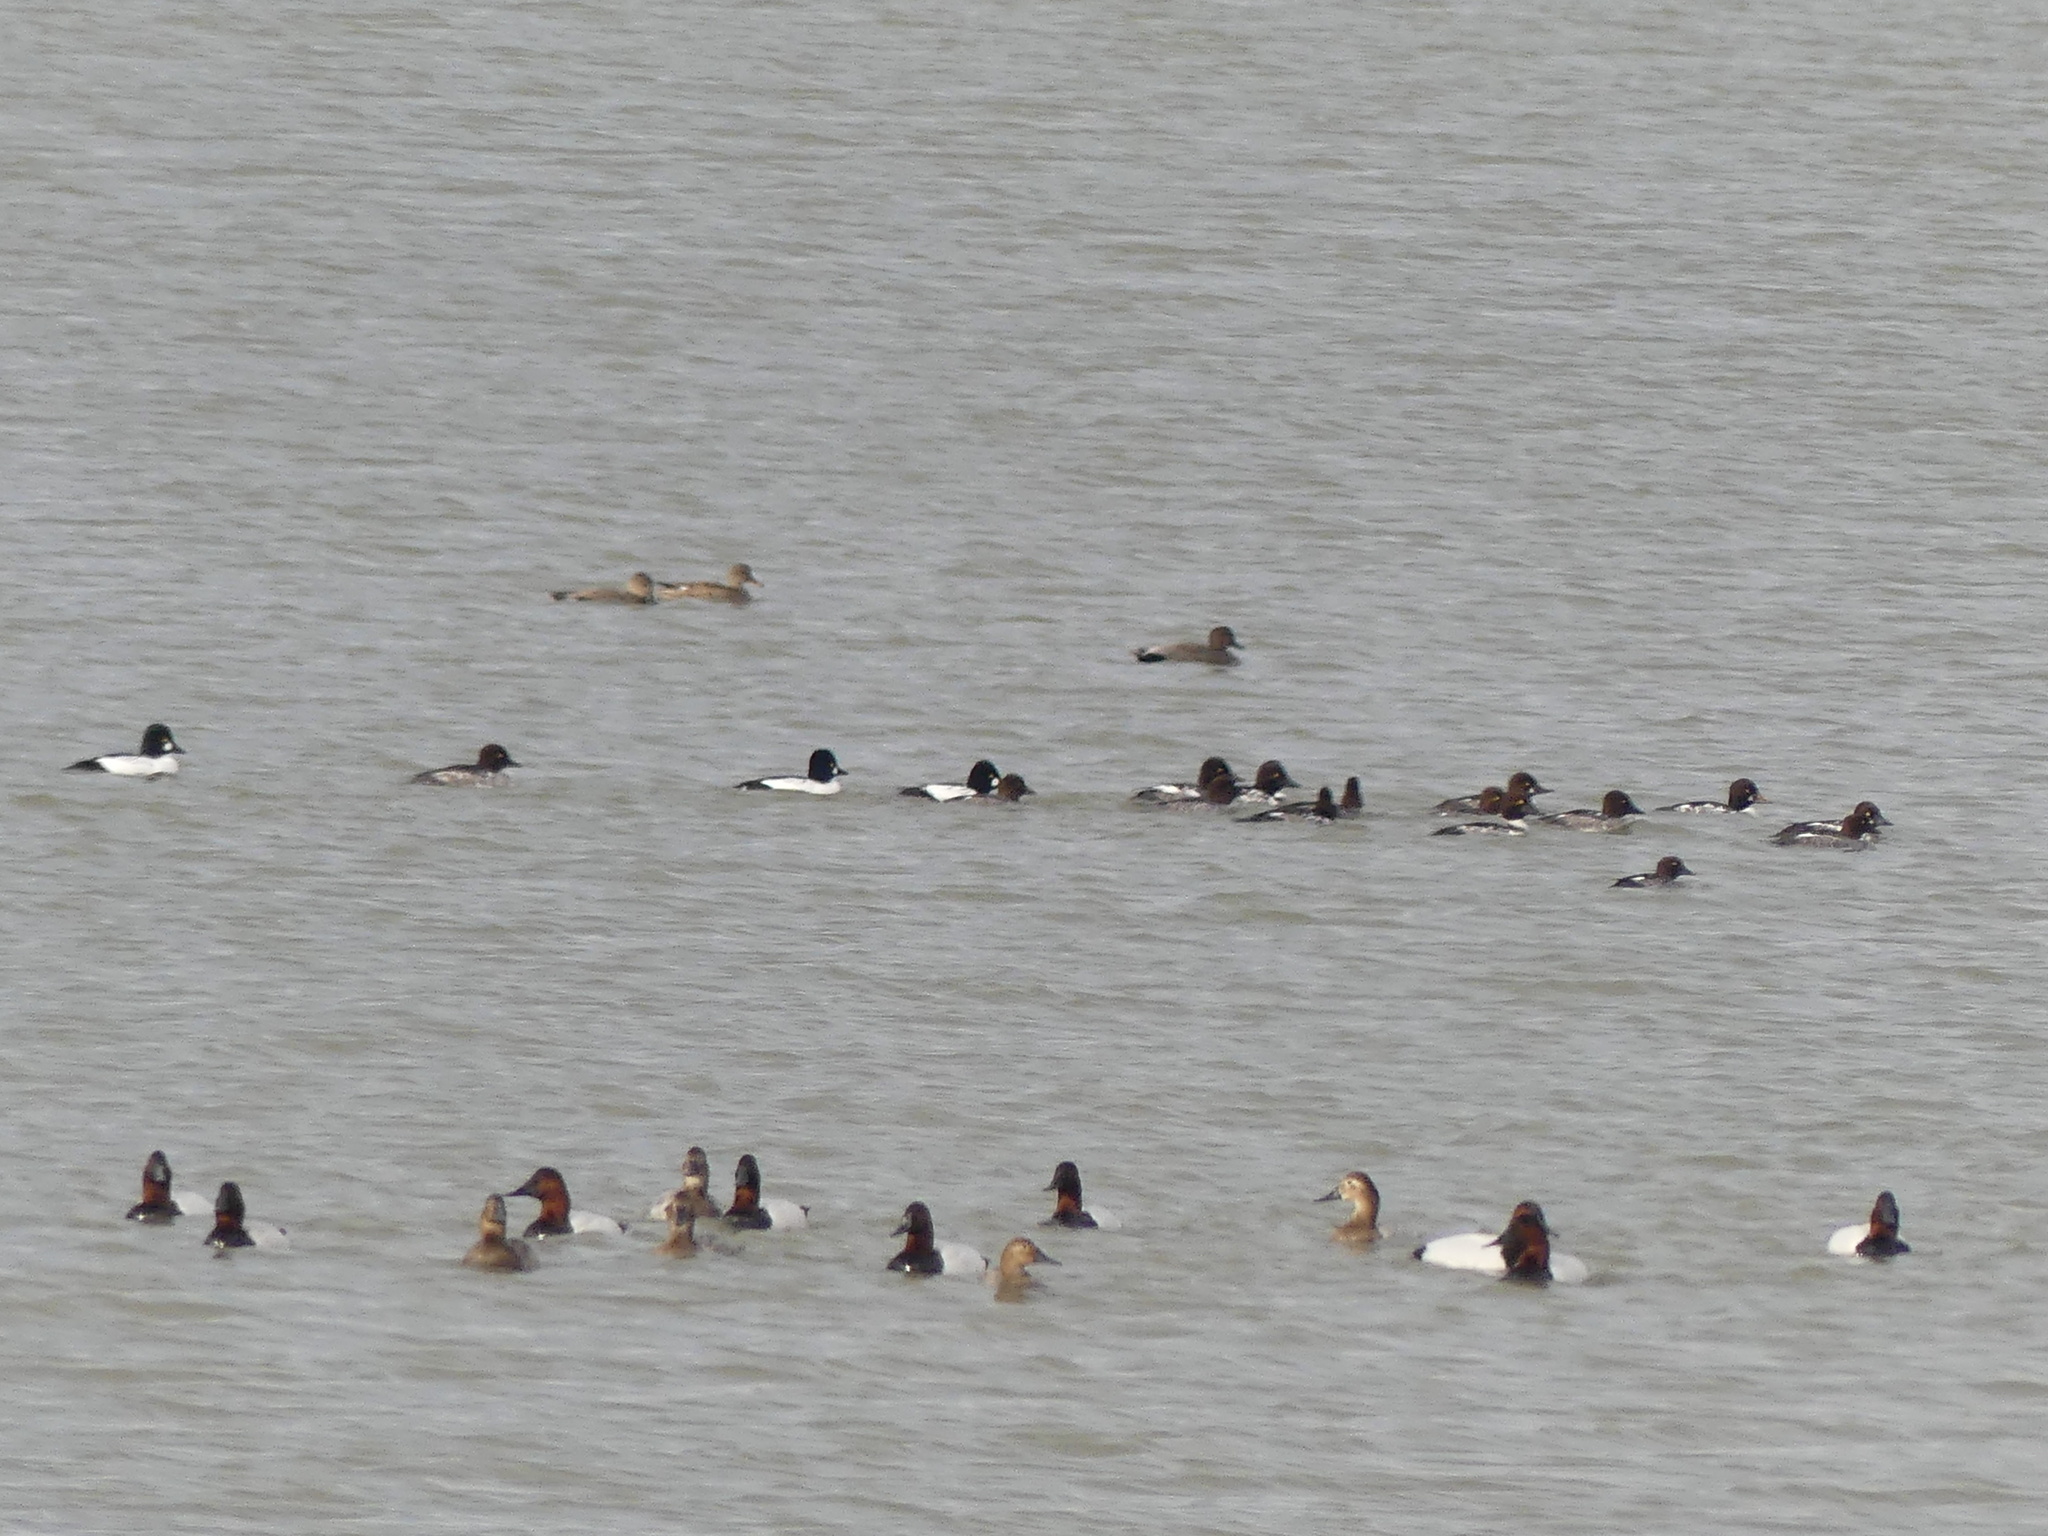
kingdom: Animalia
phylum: Chordata
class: Aves
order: Anseriformes
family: Anatidae
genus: Bucephala
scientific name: Bucephala clangula
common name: Common goldeneye
